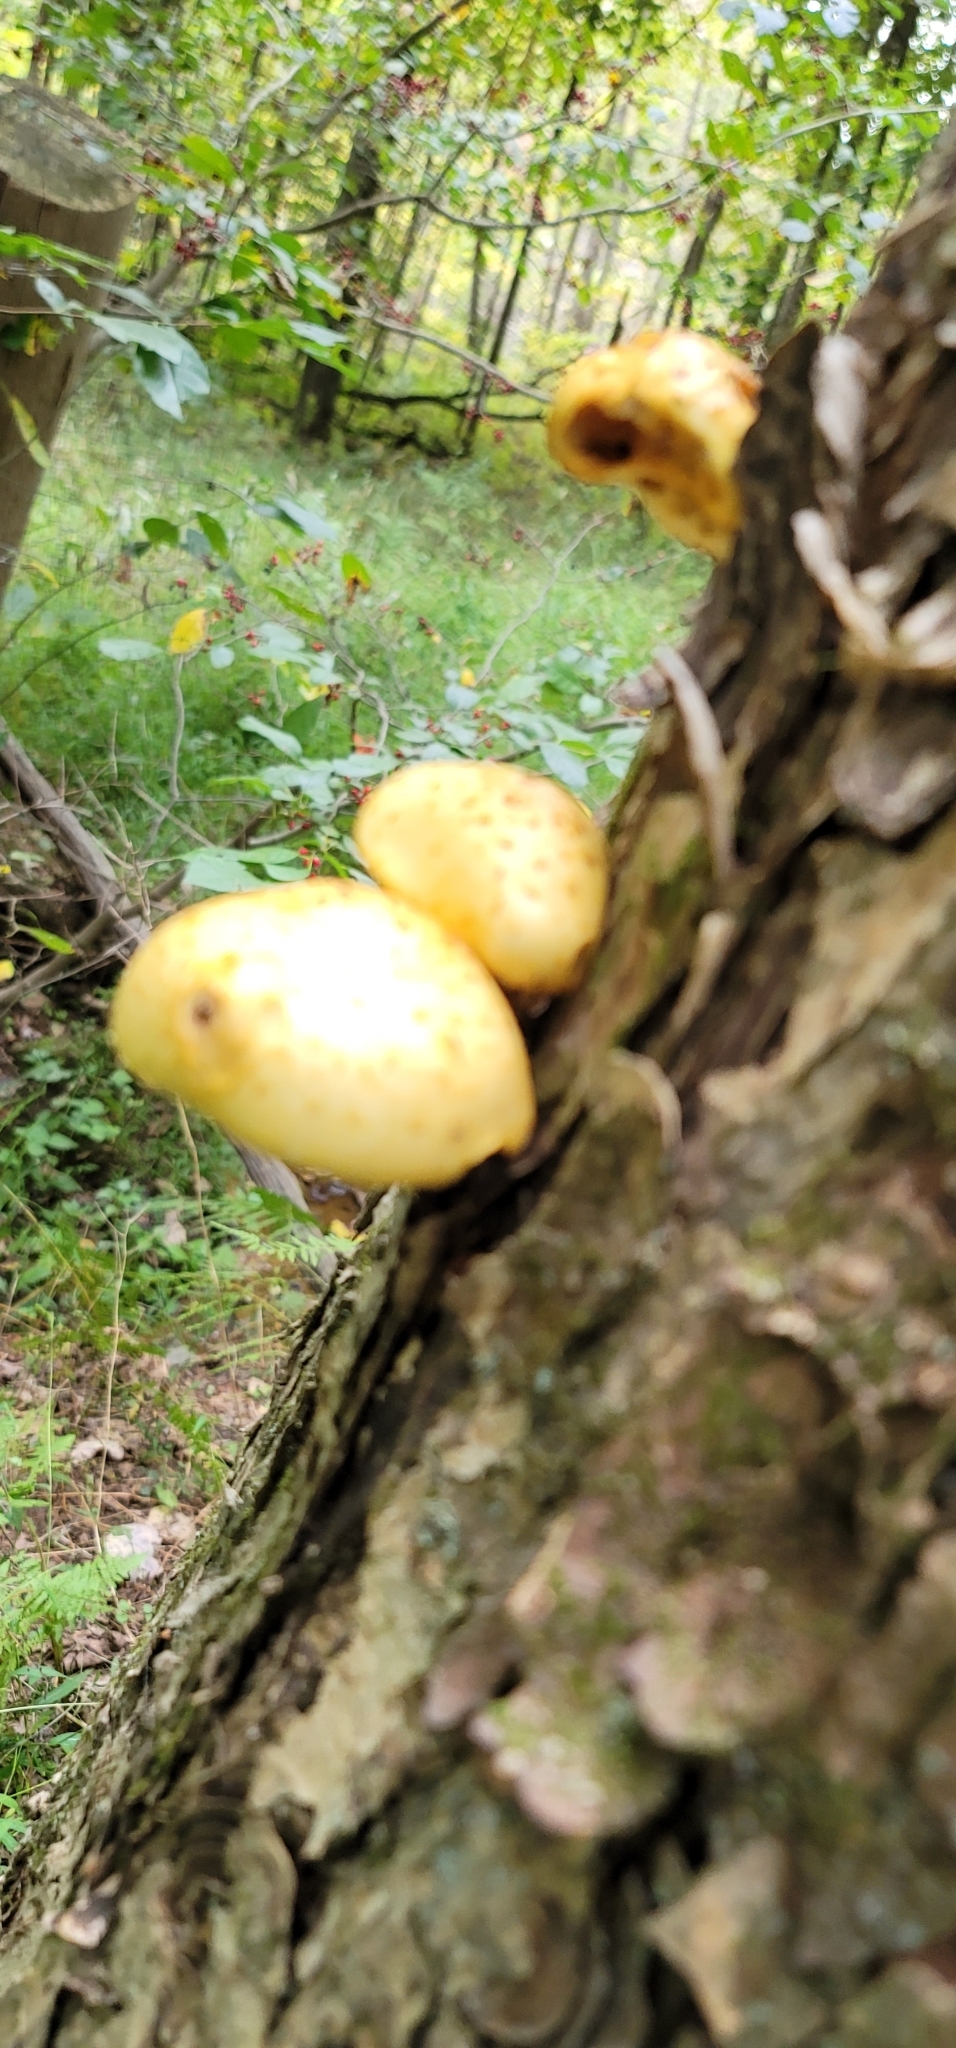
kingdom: Fungi
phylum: Basidiomycota
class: Agaricomycetes
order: Agaricales
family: Strophariaceae
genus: Pholiota
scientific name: Pholiota aurivella
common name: Golden scalycap
